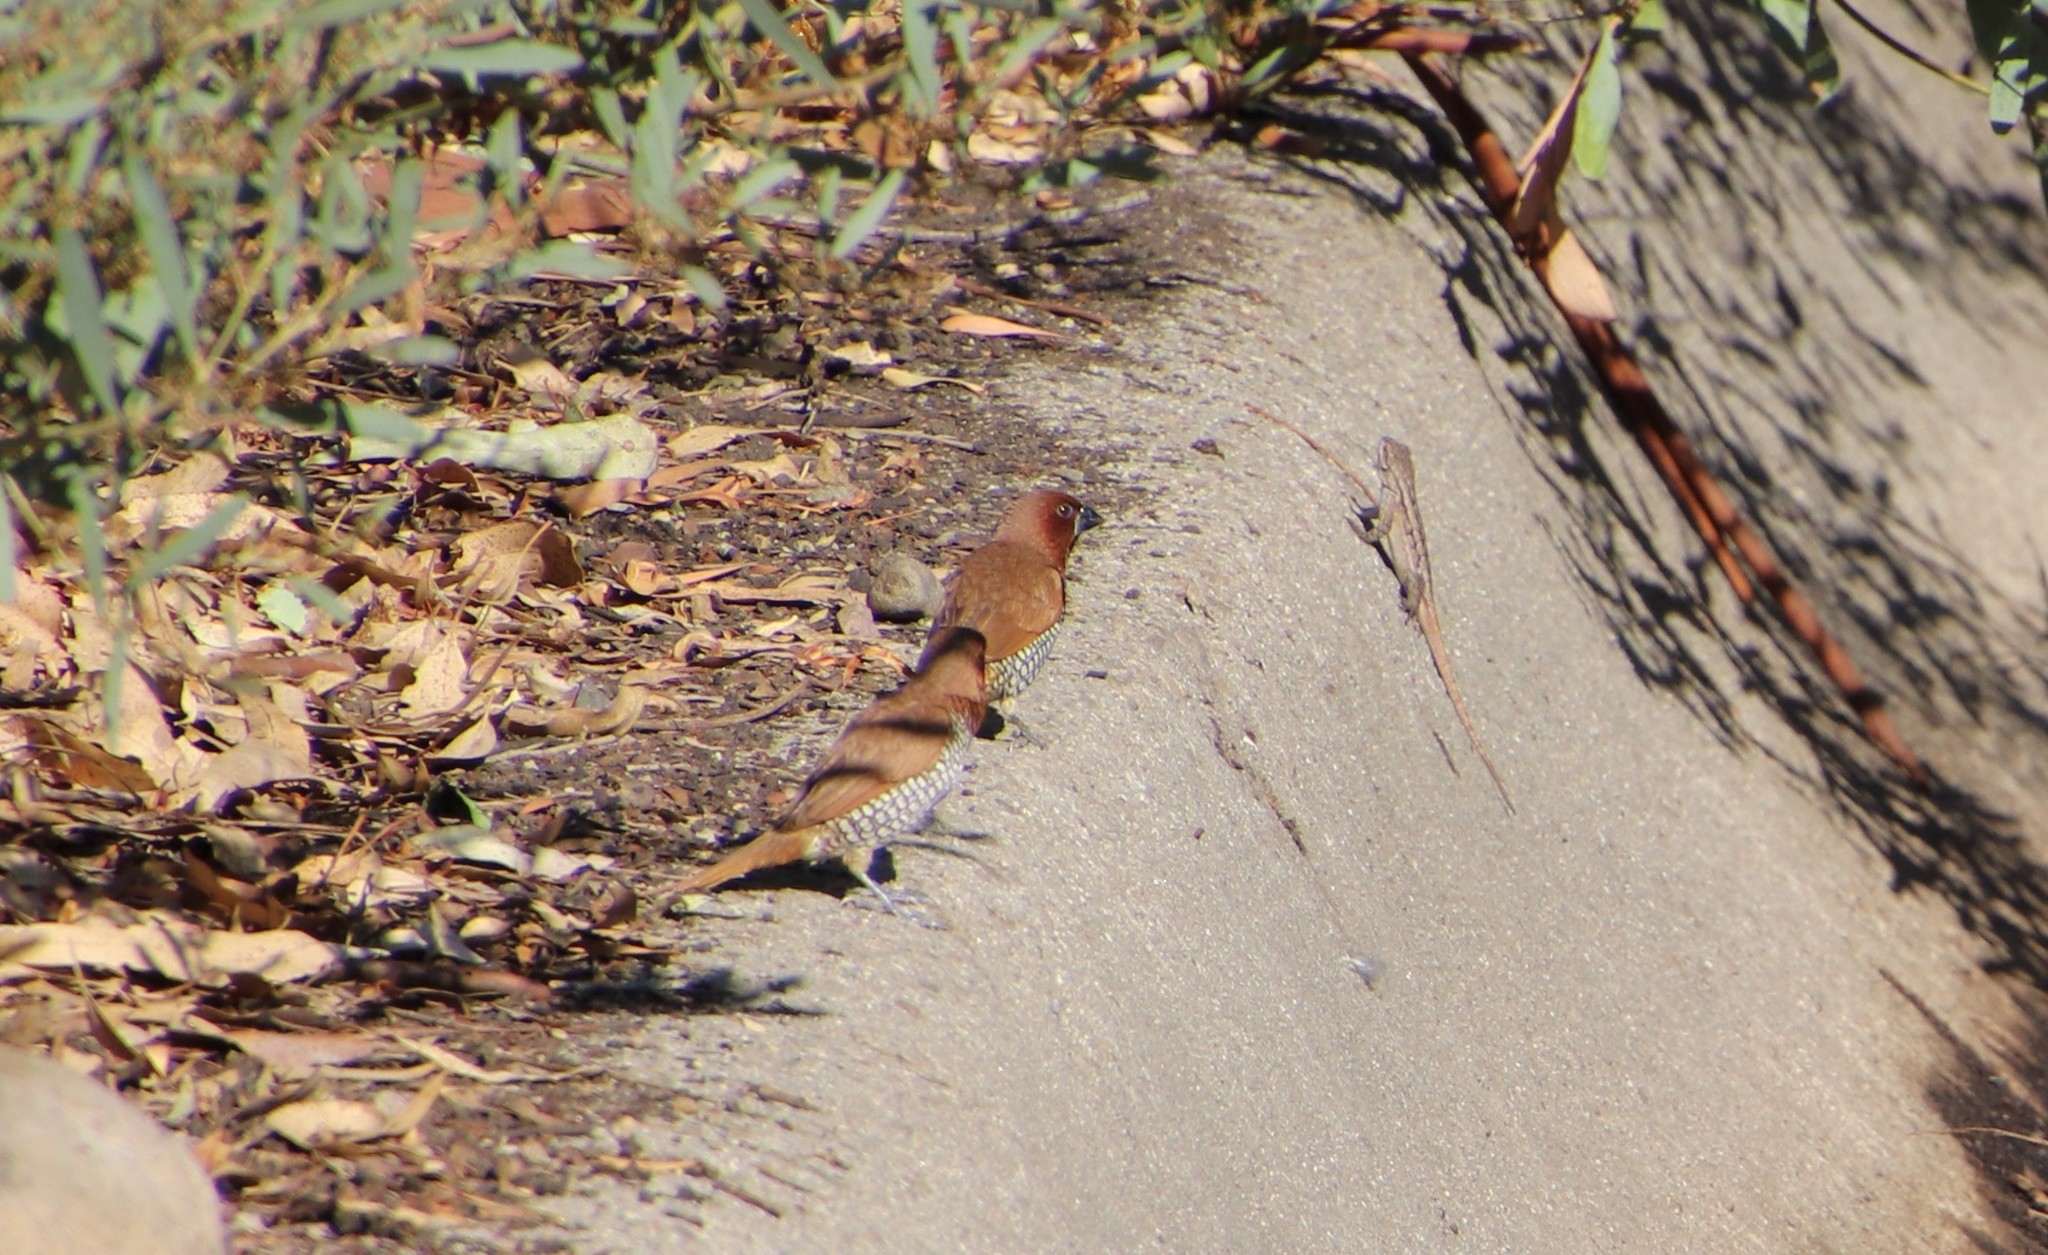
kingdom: Animalia
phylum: Chordata
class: Aves
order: Passeriformes
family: Estrildidae
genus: Lonchura
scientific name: Lonchura punctulata
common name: Scaly-breasted munia
